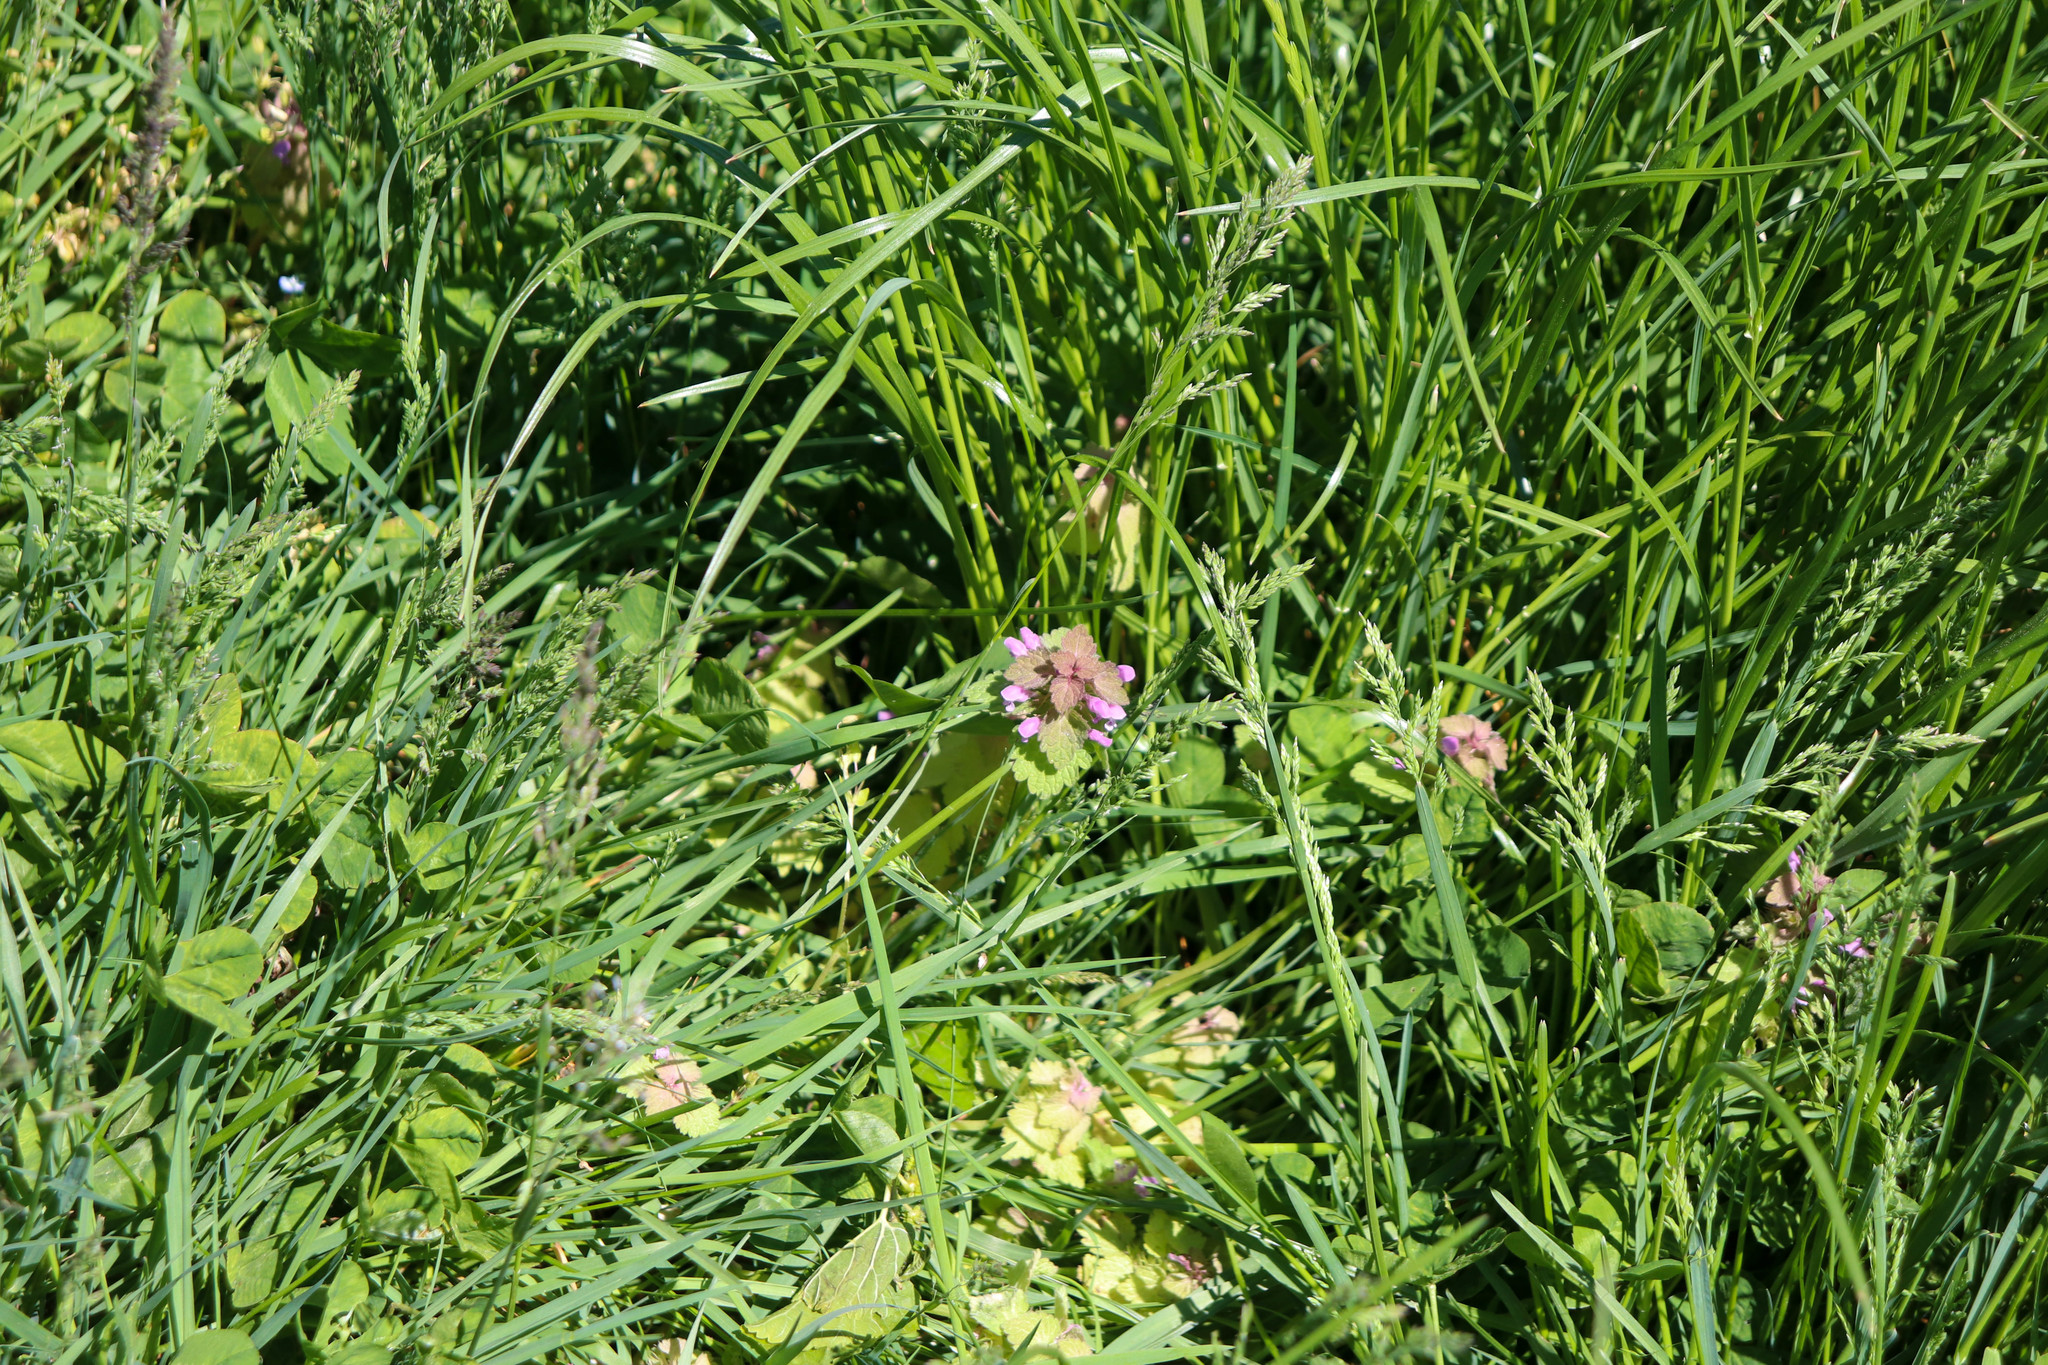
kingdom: Plantae
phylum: Tracheophyta
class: Magnoliopsida
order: Lamiales
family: Lamiaceae
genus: Lamium
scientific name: Lamium purpureum
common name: Red dead-nettle
